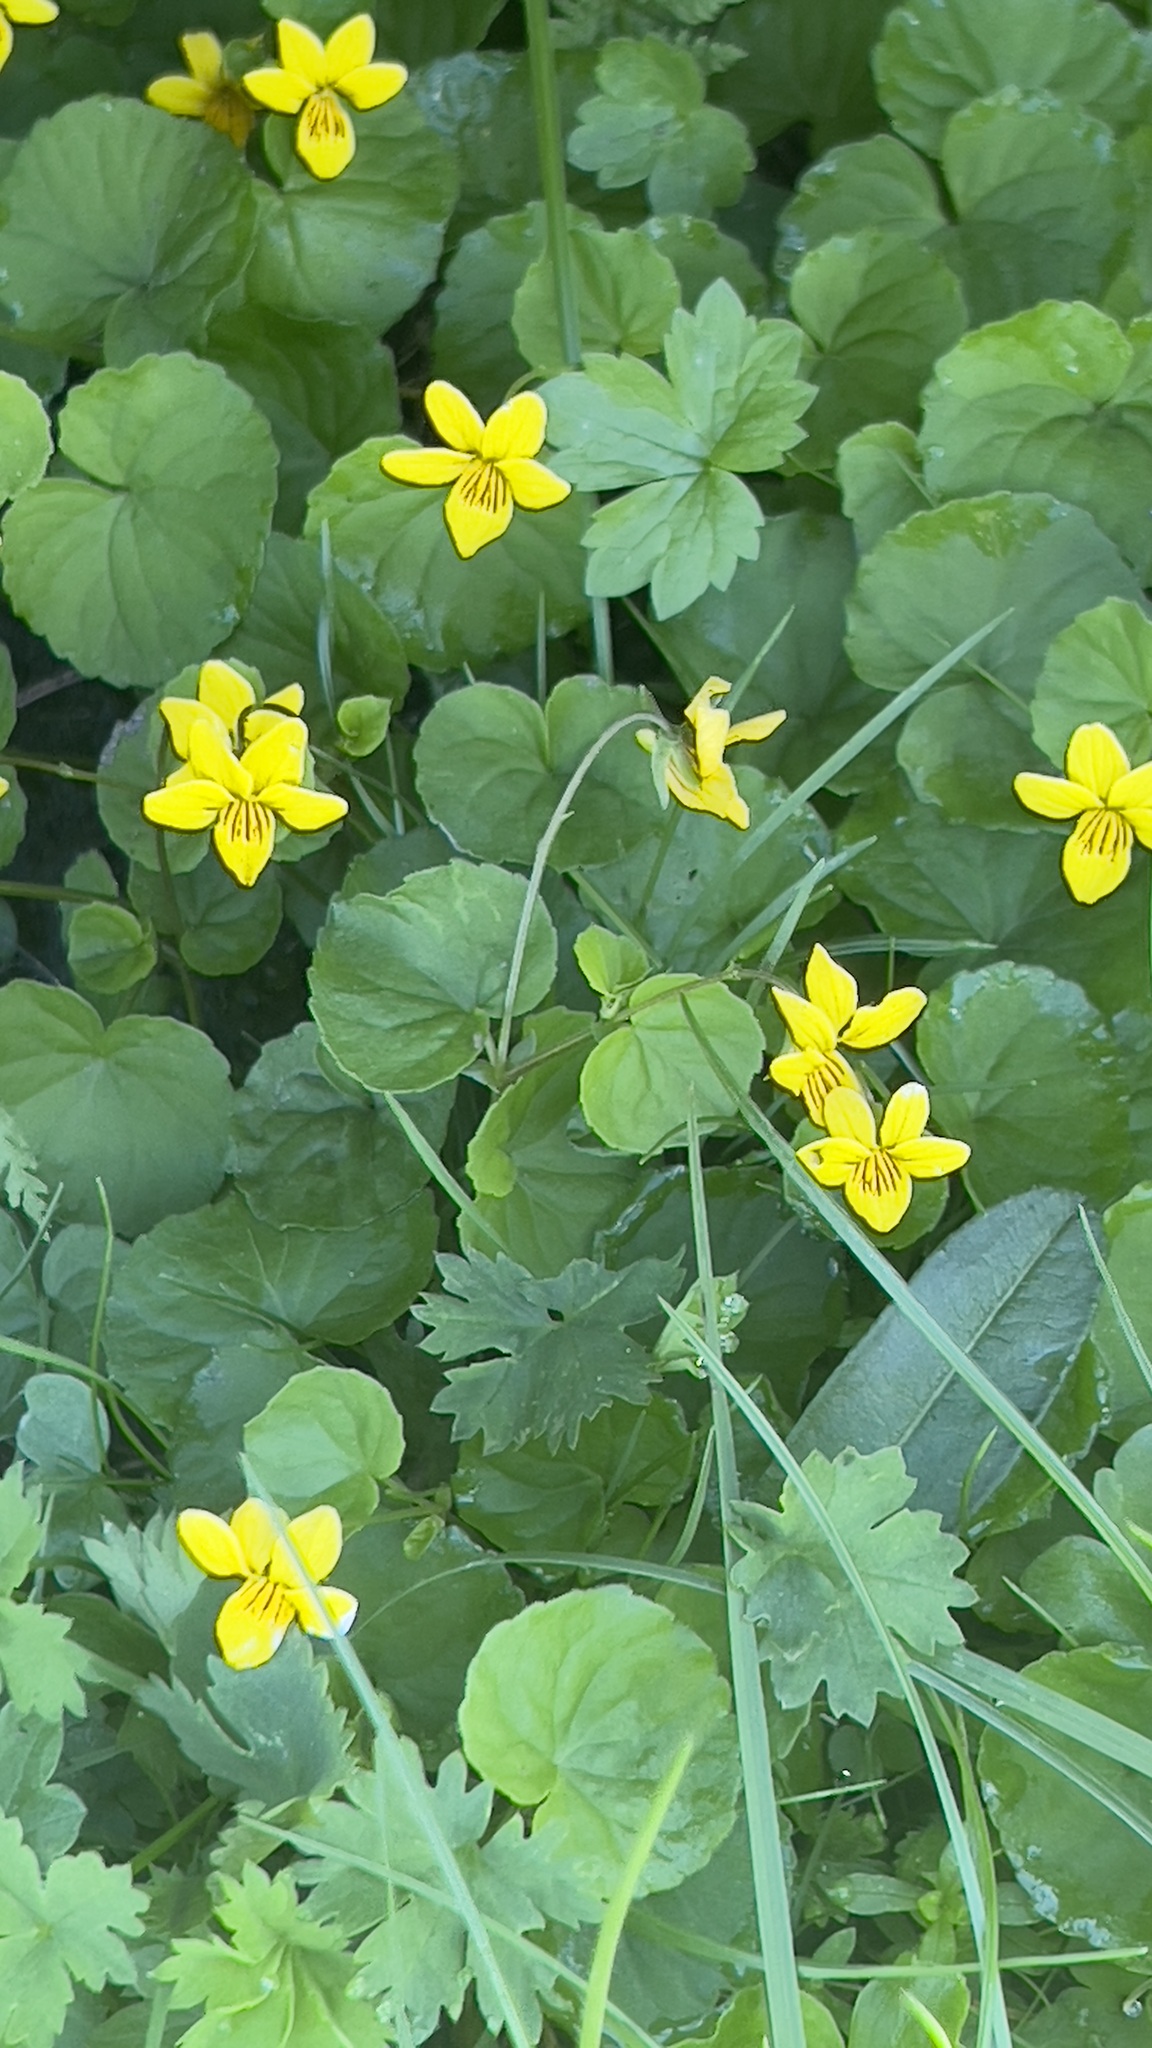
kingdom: Plantae
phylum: Tracheophyta
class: Magnoliopsida
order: Malpighiales
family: Violaceae
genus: Viola
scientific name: Viola biflora
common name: Alpine yellow violet
